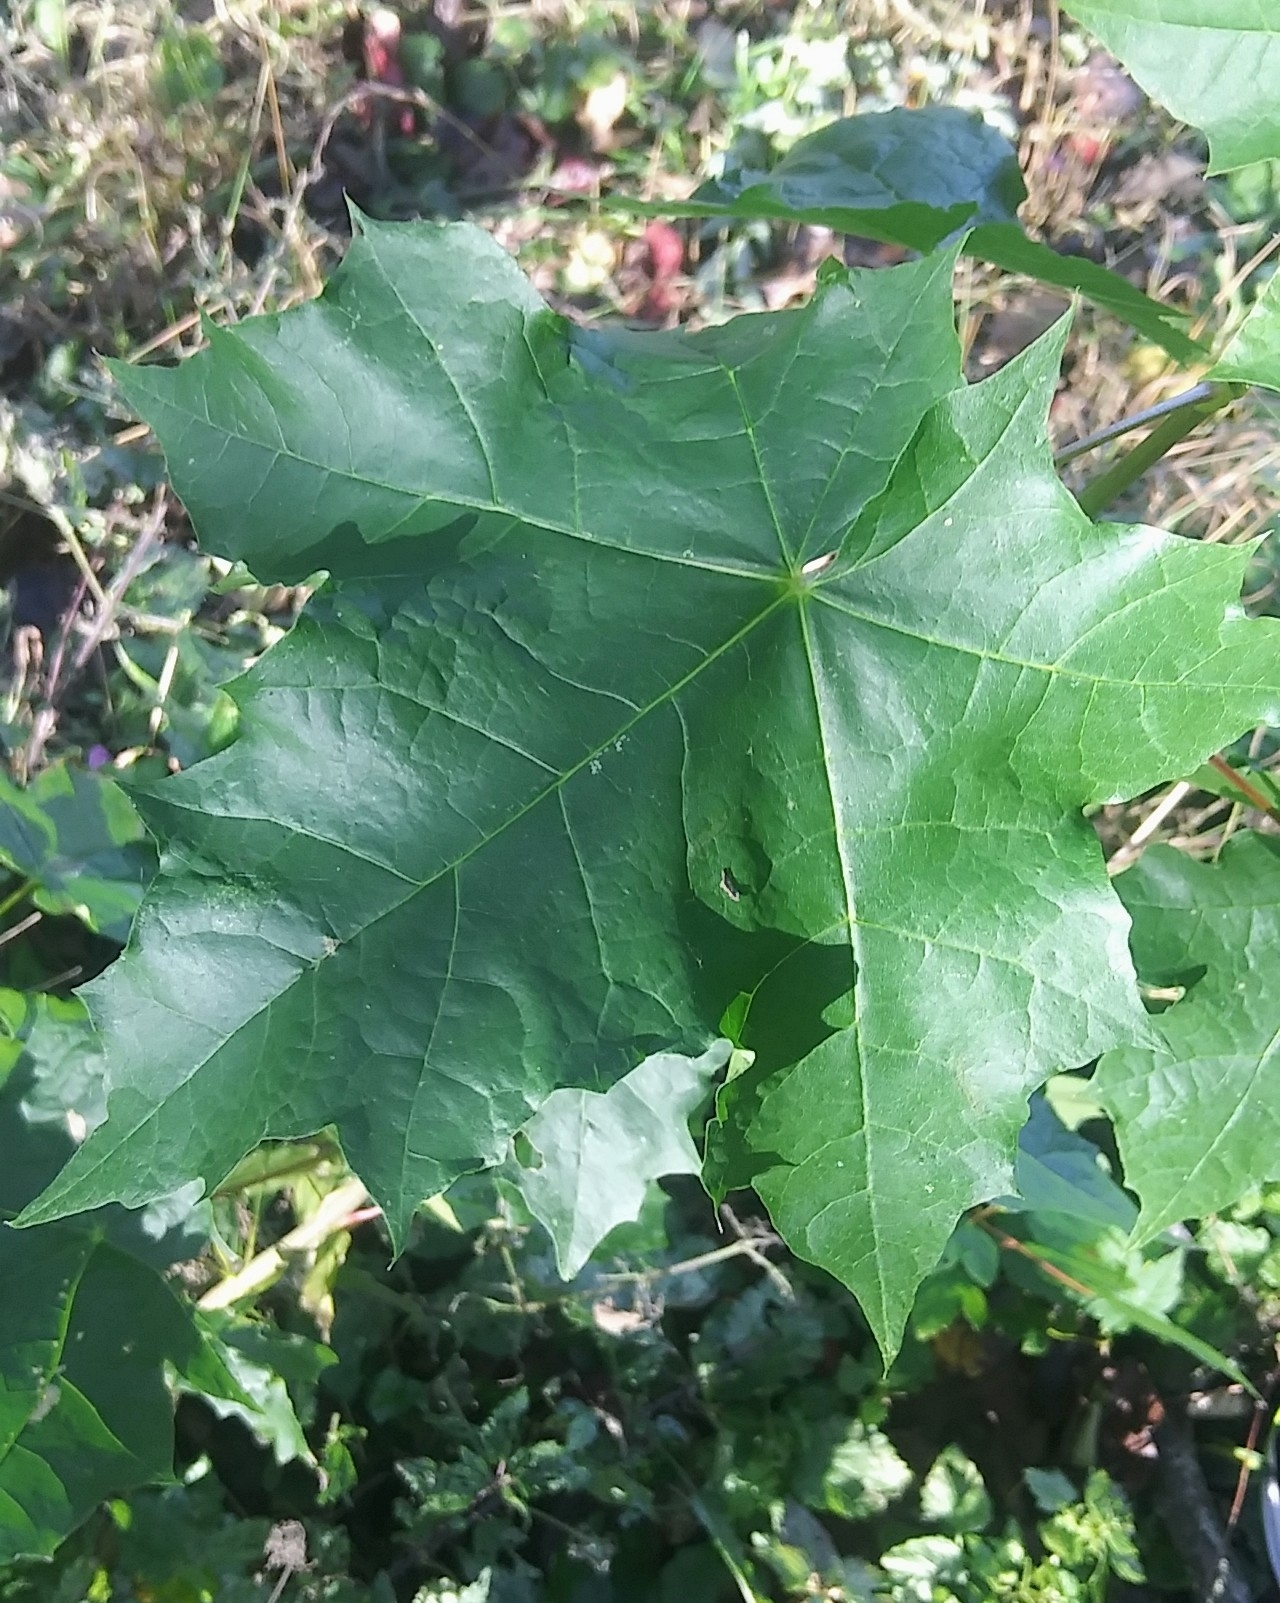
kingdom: Plantae
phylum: Tracheophyta
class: Magnoliopsida
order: Sapindales
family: Sapindaceae
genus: Acer
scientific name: Acer platanoides
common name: Norway maple
